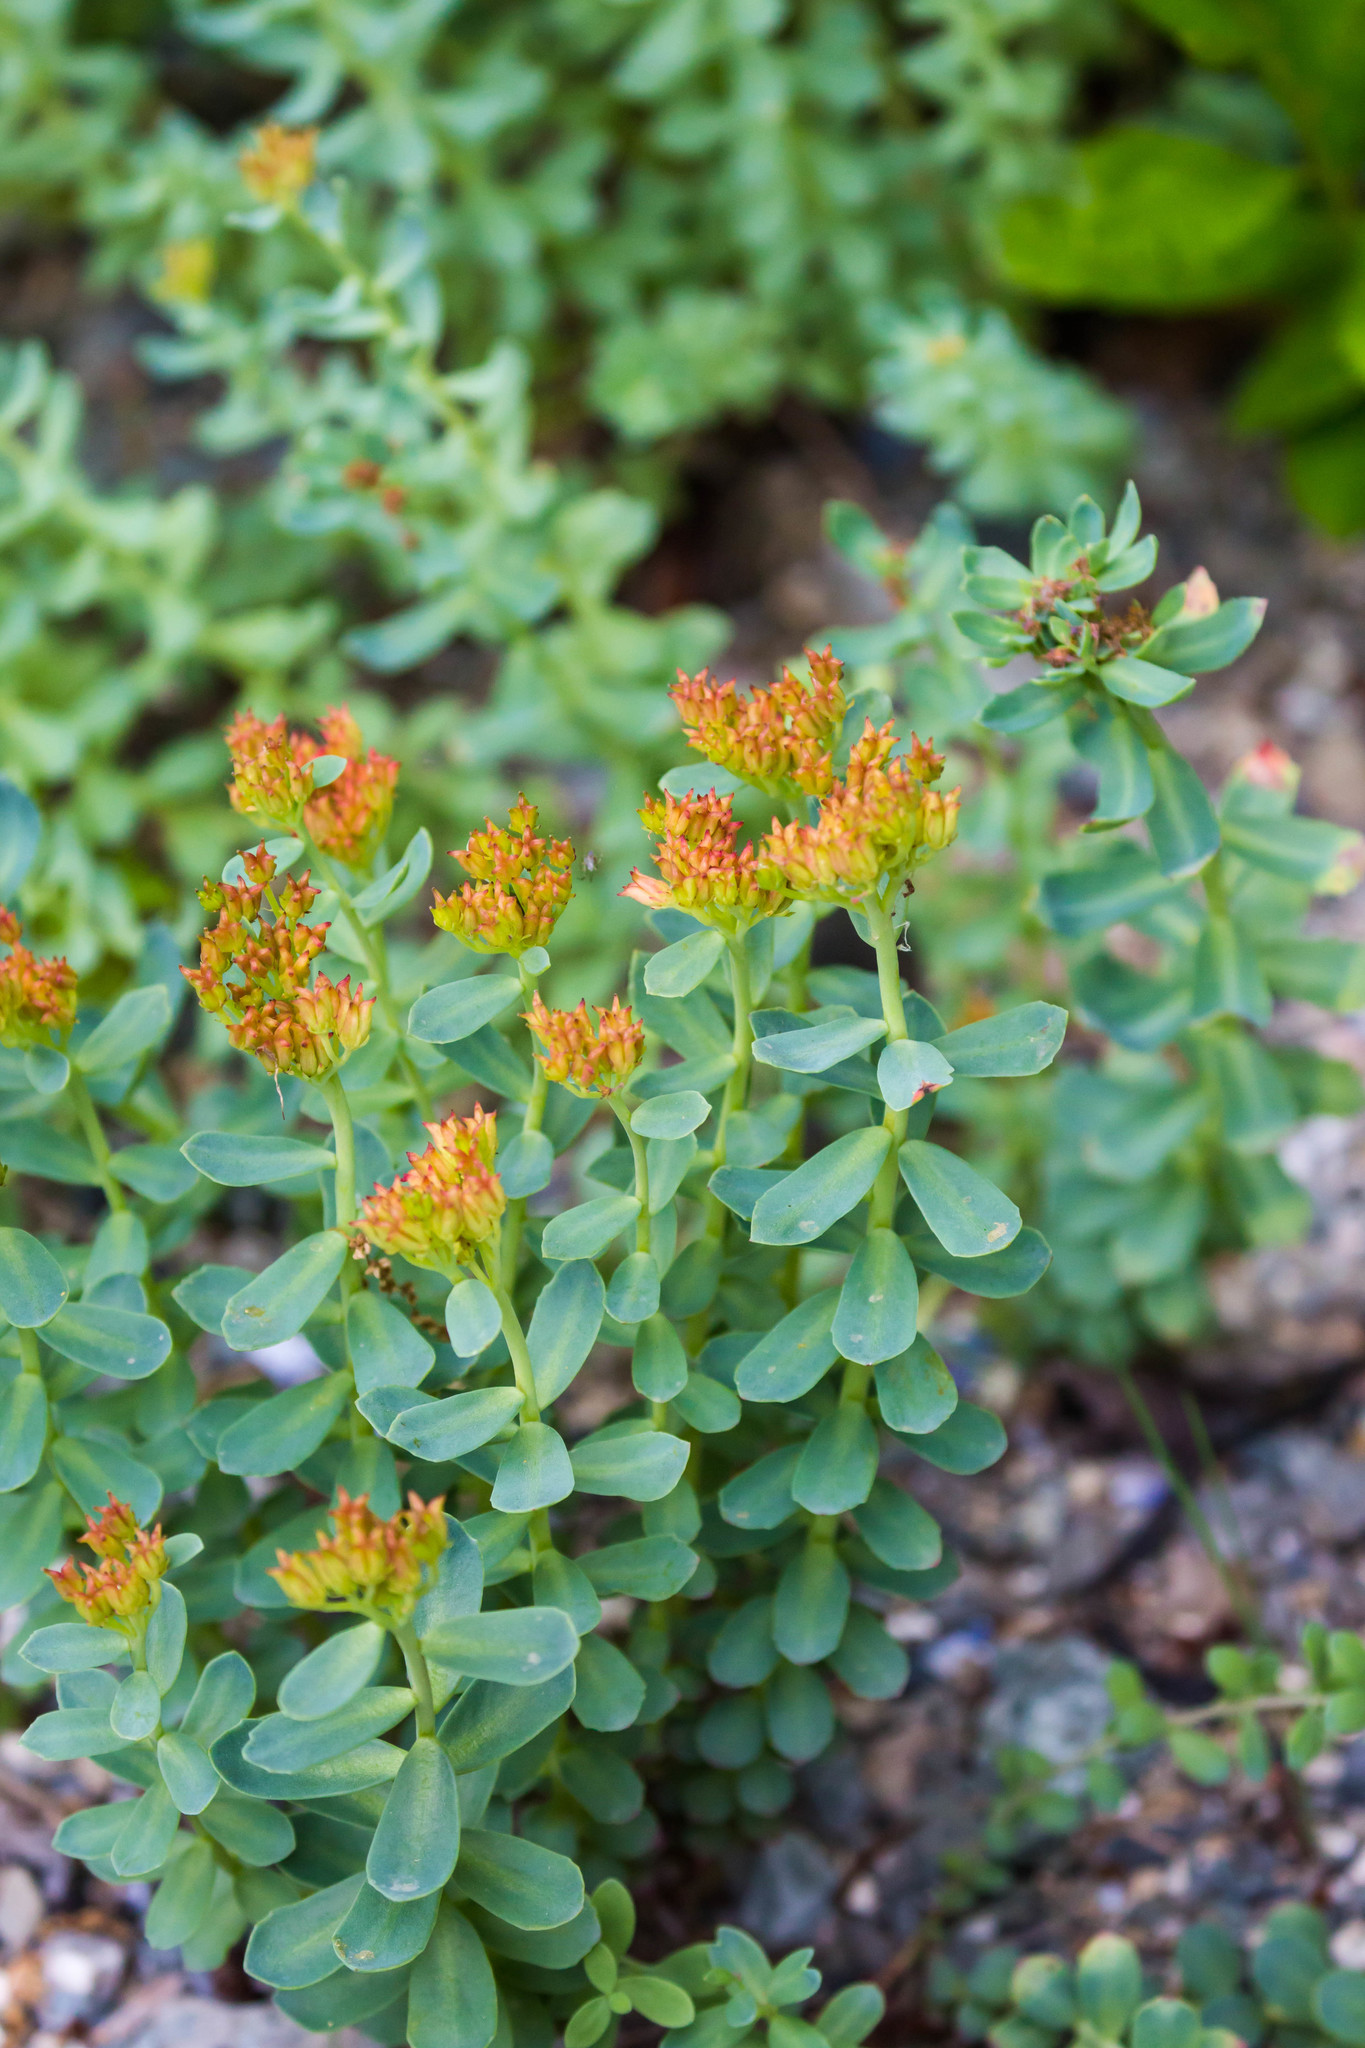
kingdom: Plantae
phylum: Tracheophyta
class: Magnoliopsida
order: Saxifragales
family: Crassulaceae
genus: Rhodiola
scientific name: Rhodiola rosea
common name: Roseroot
